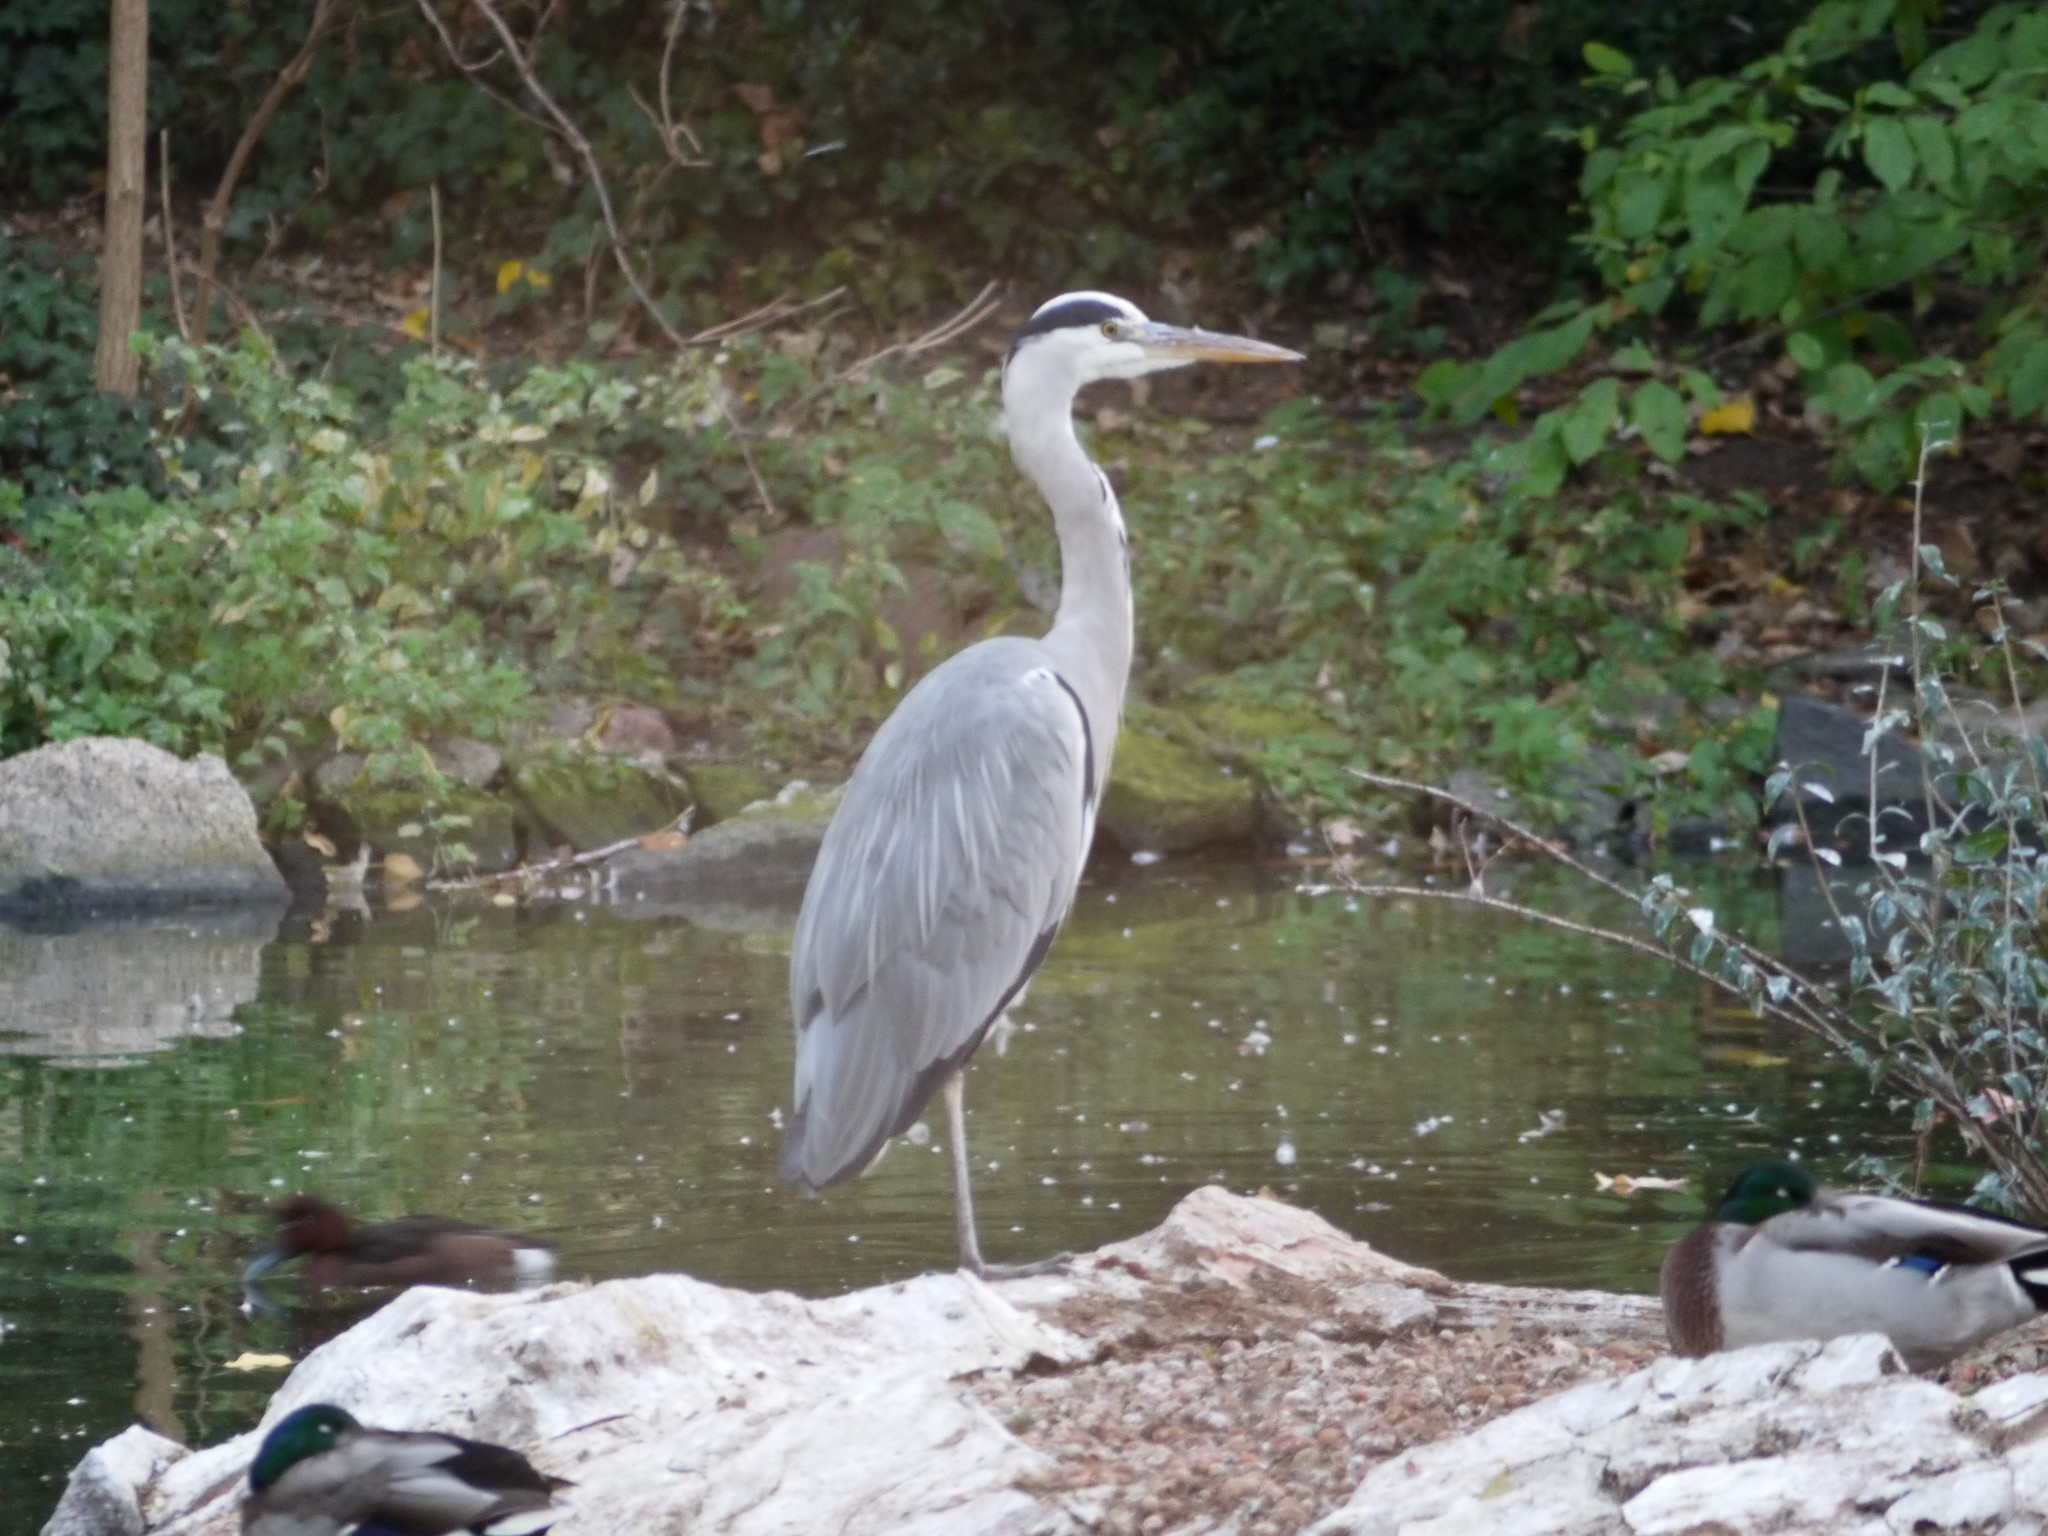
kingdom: Animalia
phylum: Chordata
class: Aves
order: Pelecaniformes
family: Ardeidae
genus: Ardea
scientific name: Ardea cinerea
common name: Grey heron
